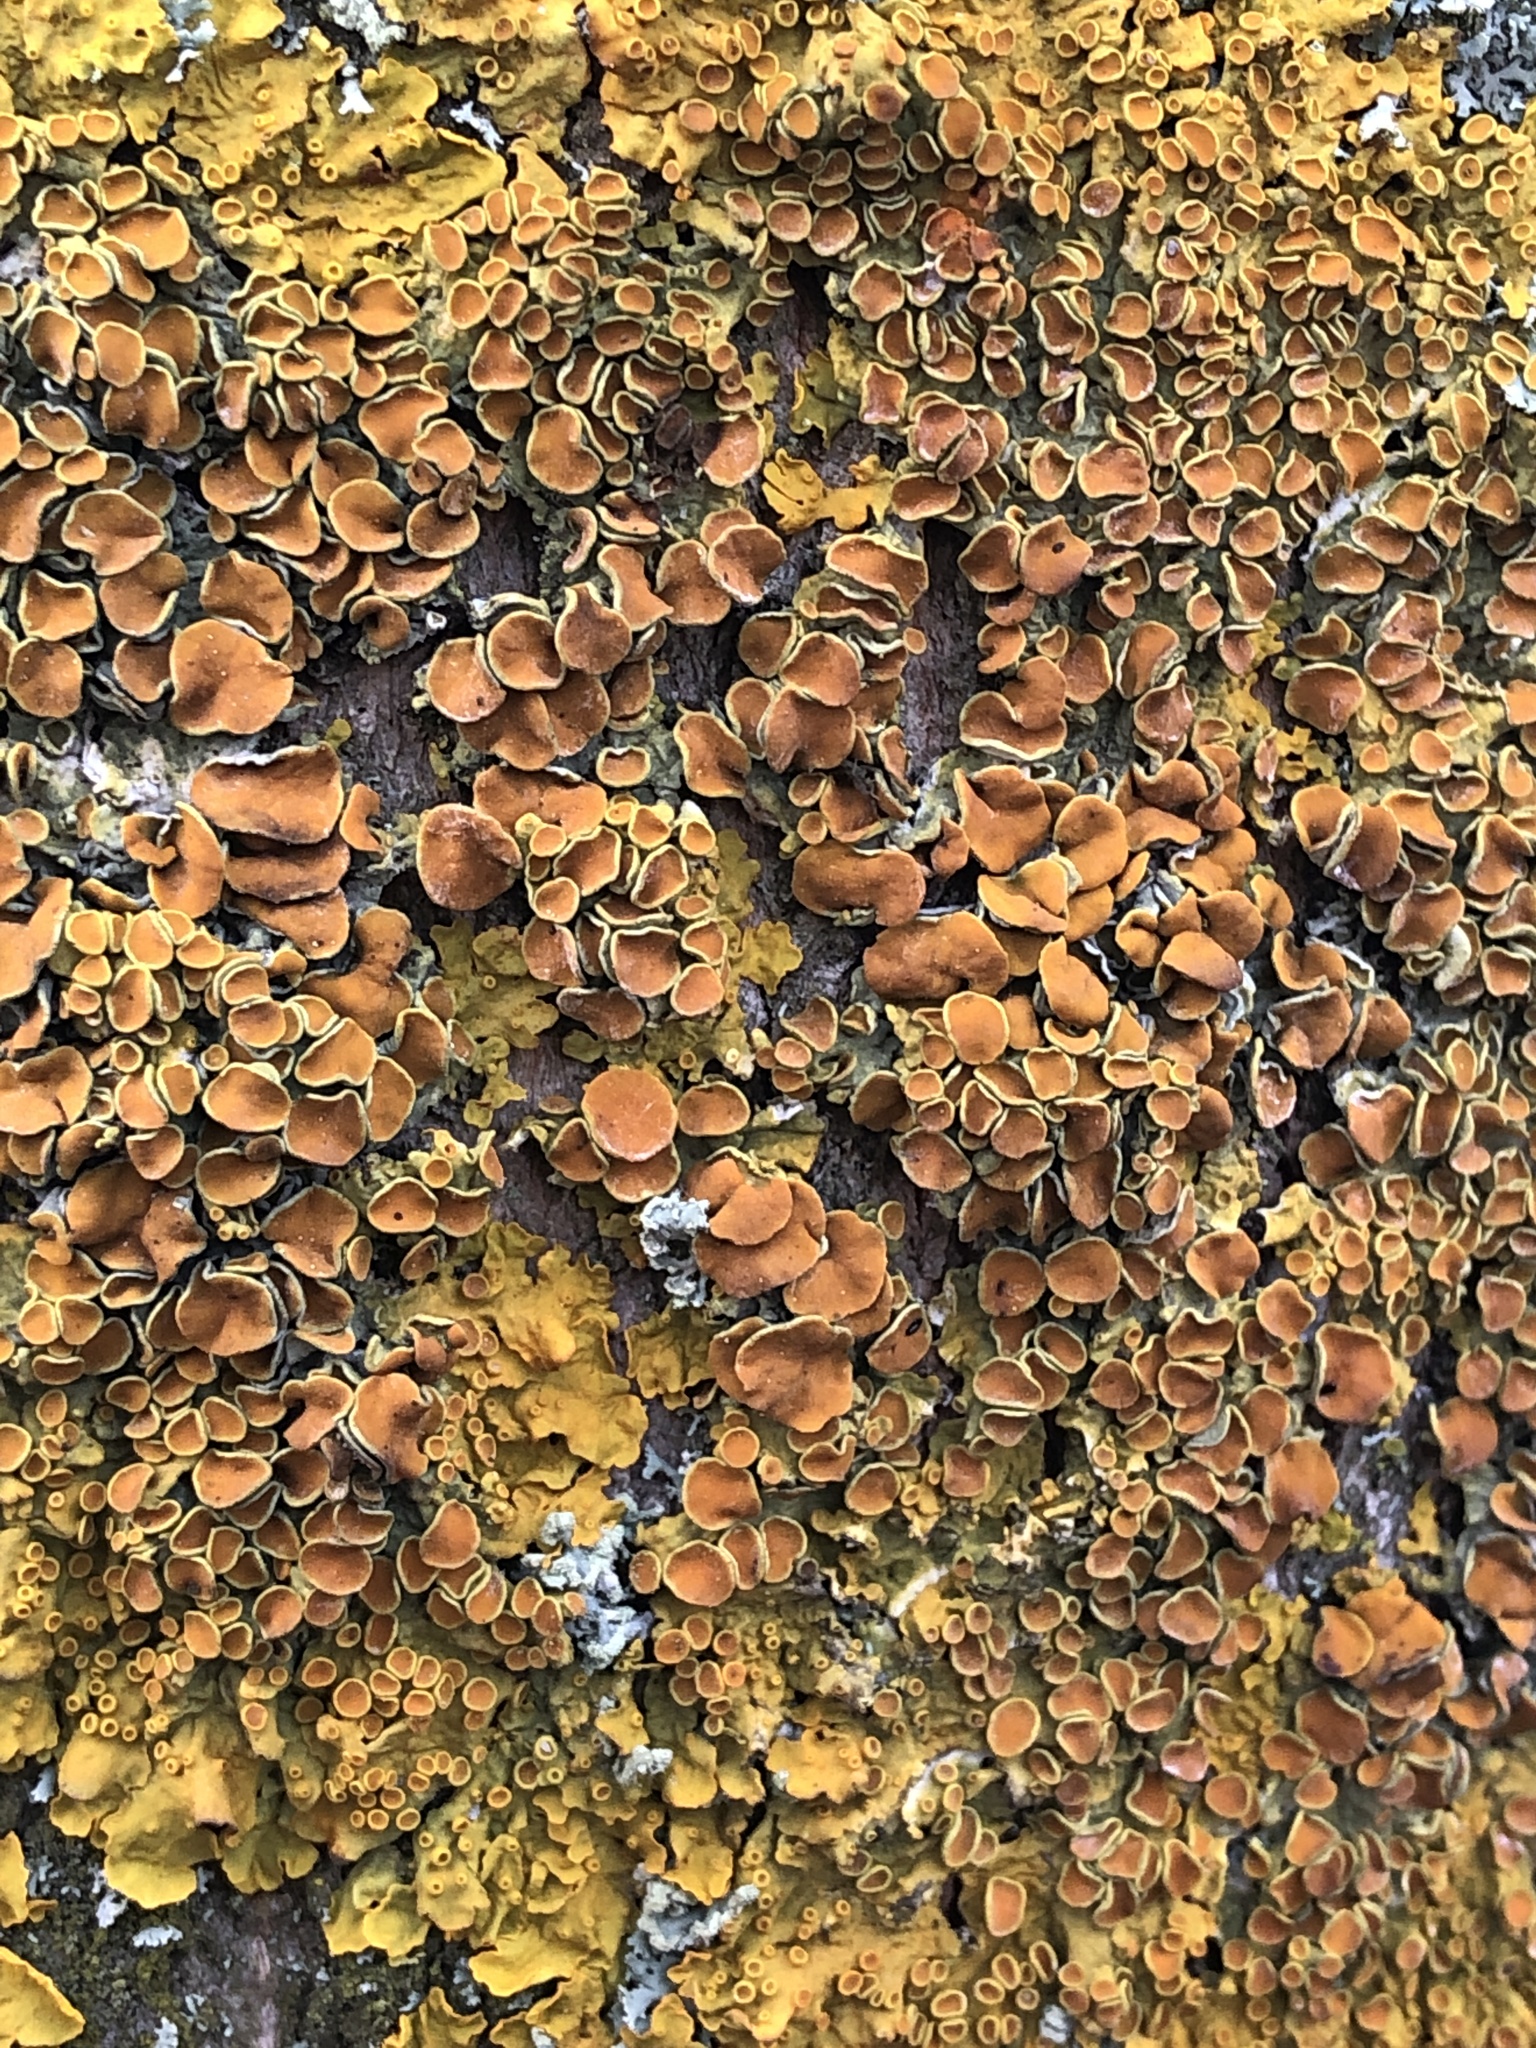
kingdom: Fungi
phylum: Ascomycota
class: Lecanoromycetes
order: Teloschistales
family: Teloschistaceae
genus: Xanthoria
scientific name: Xanthoria parietina
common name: Common orange lichen
